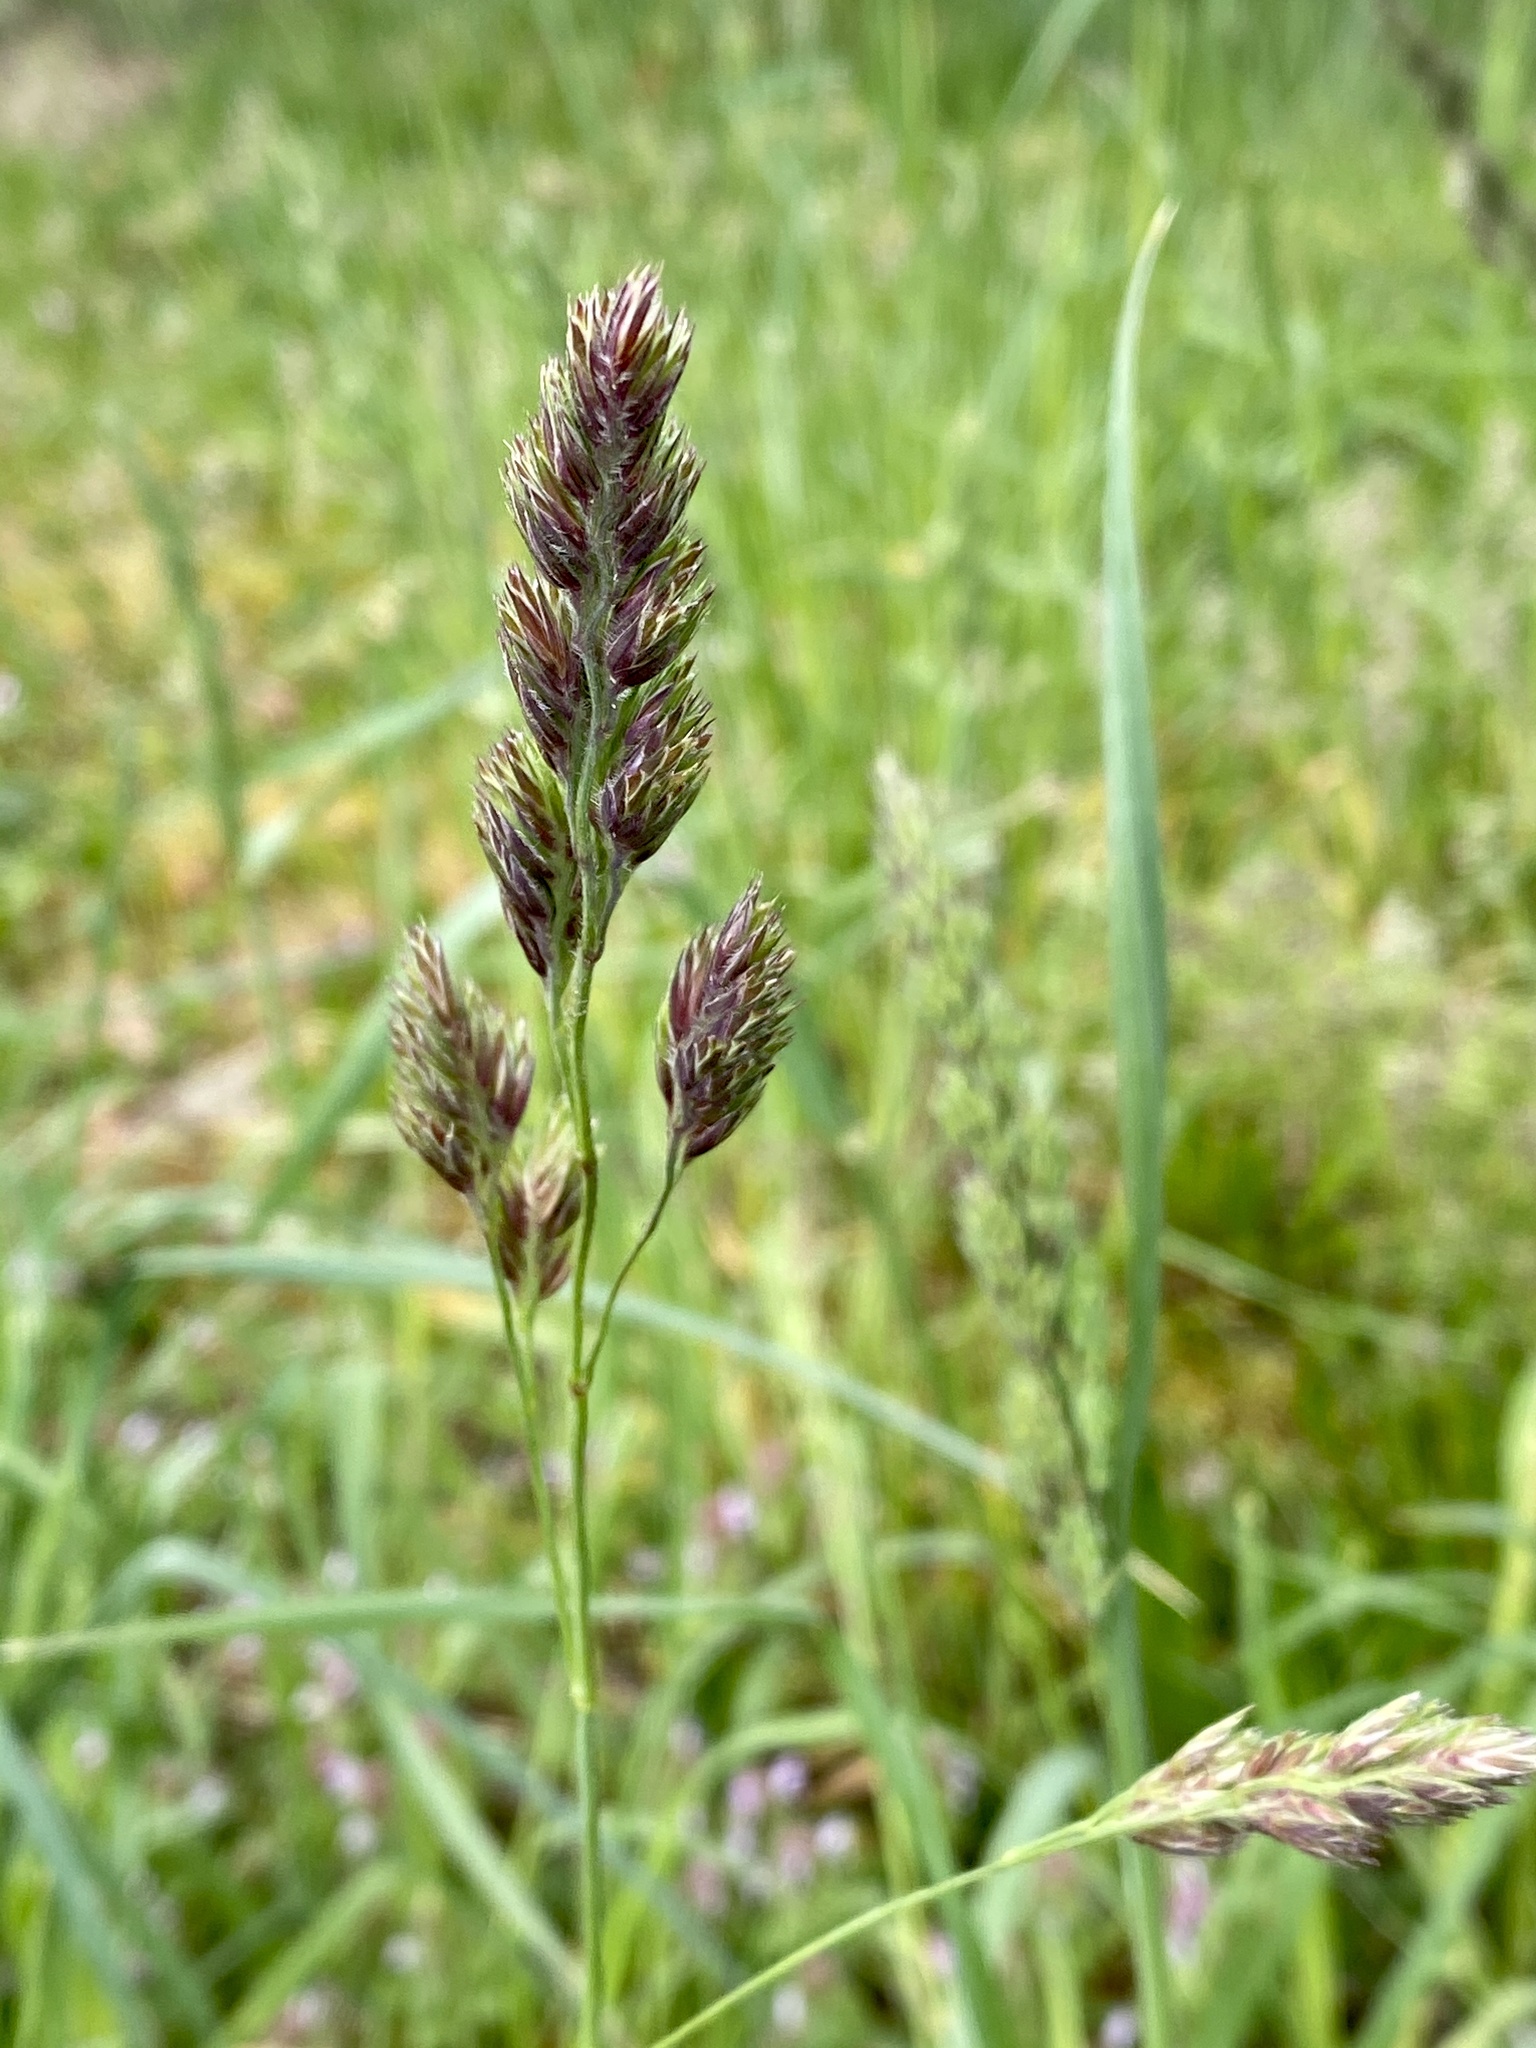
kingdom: Plantae
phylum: Tracheophyta
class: Liliopsida
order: Poales
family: Poaceae
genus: Dactylis
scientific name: Dactylis glomerata
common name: Orchardgrass
